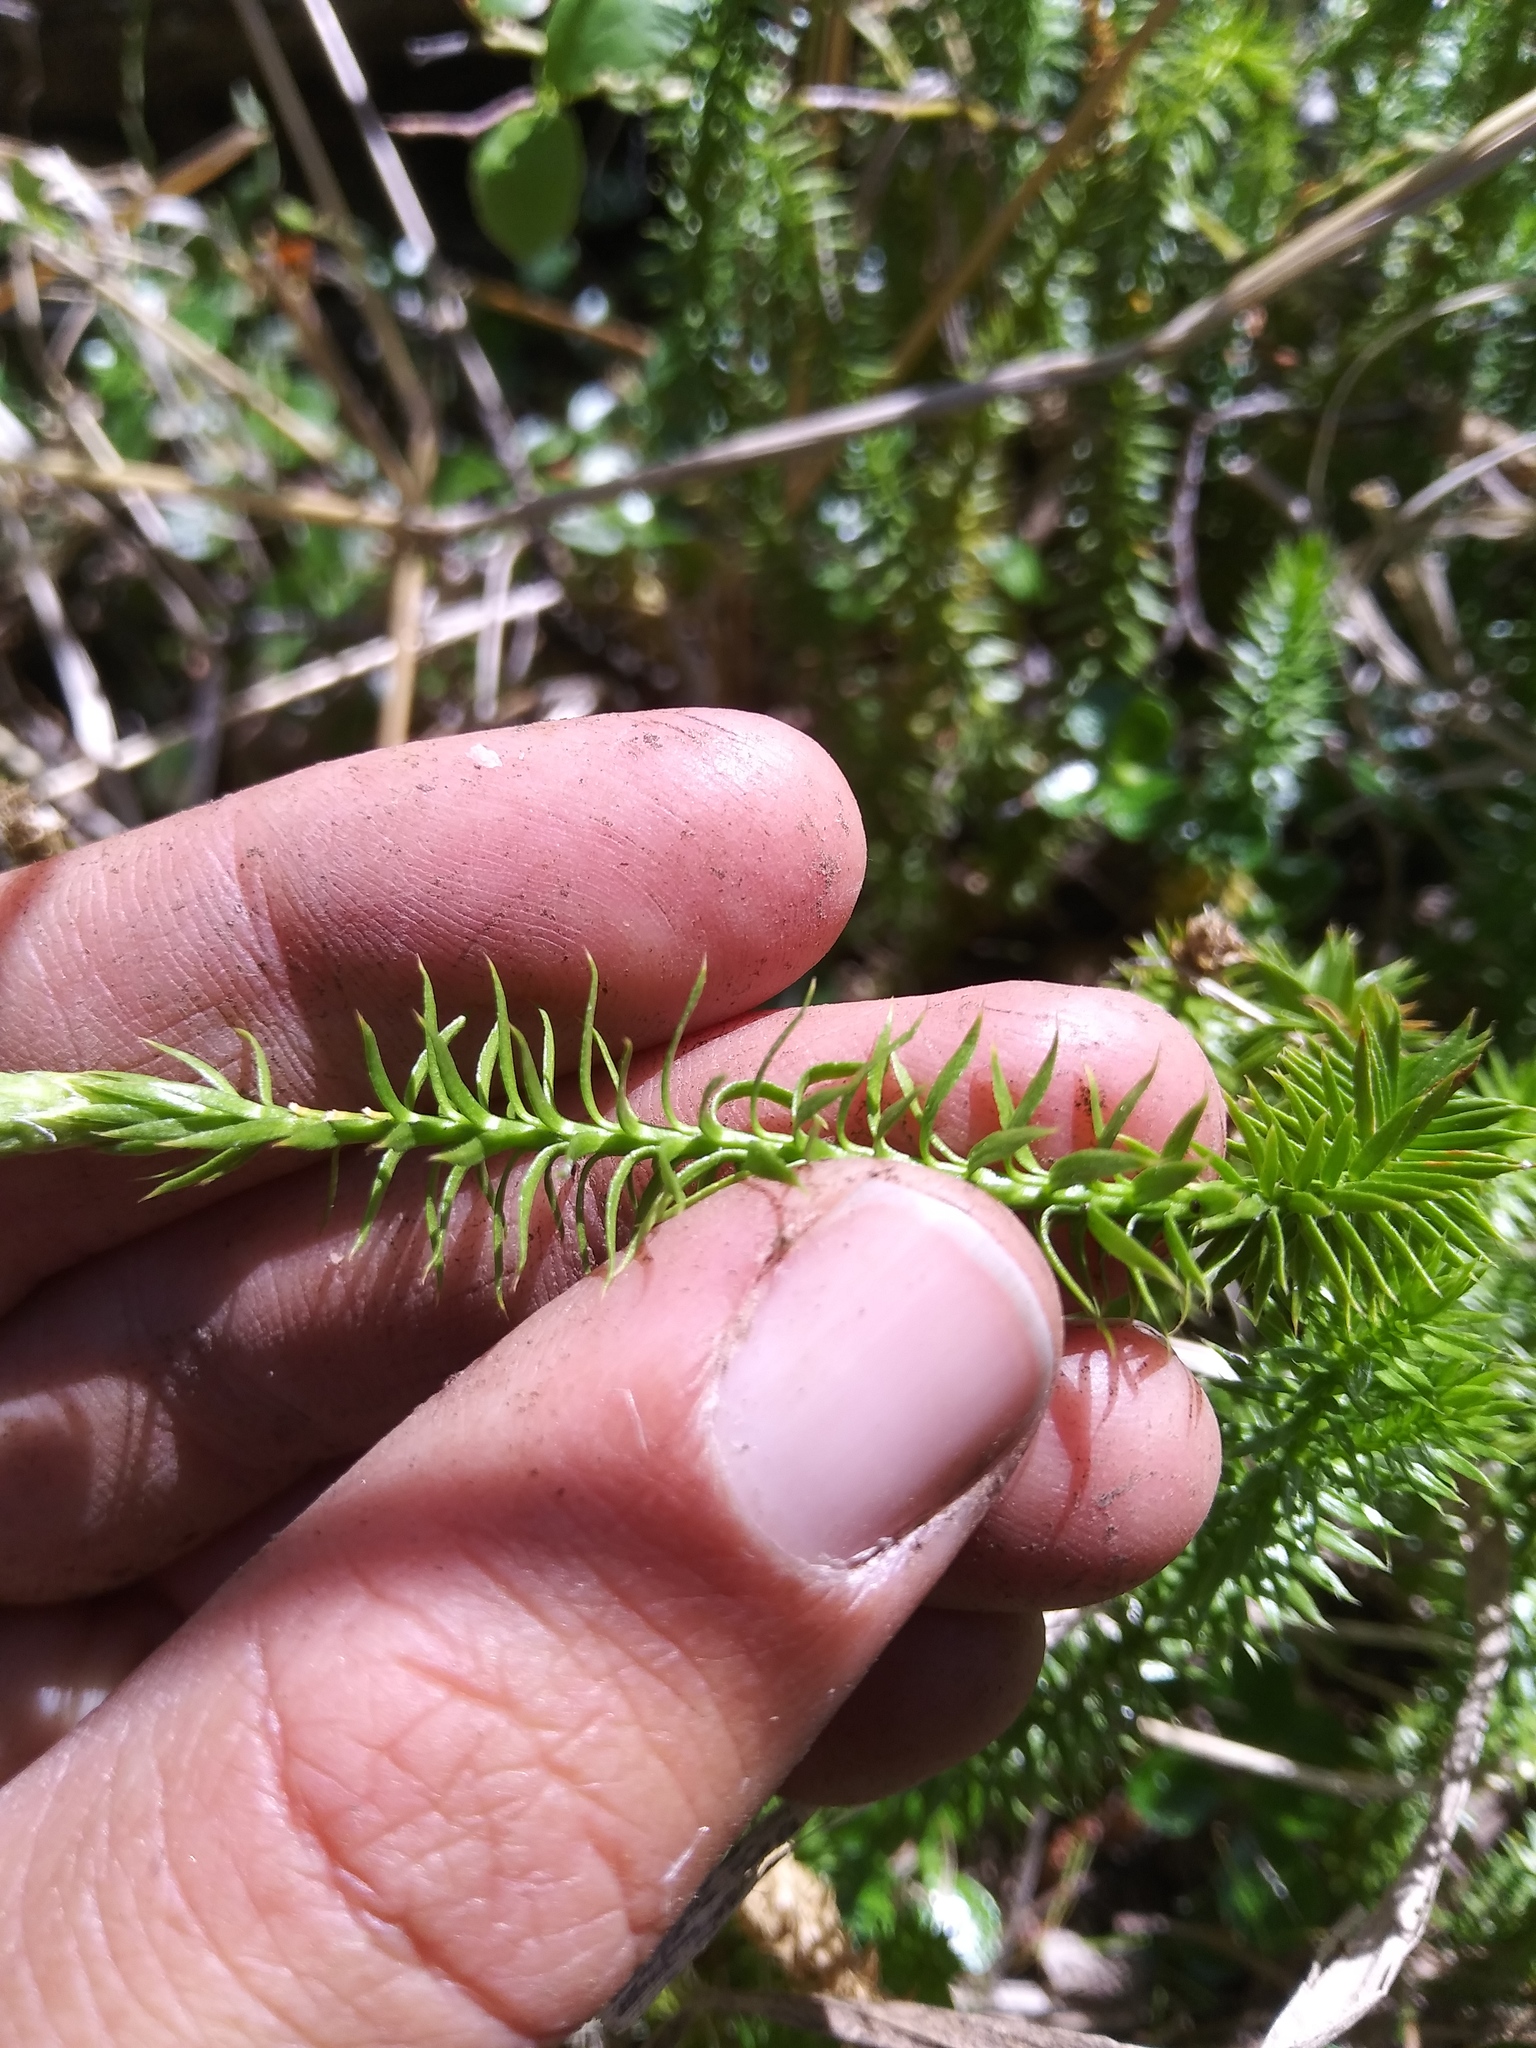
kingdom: Plantae
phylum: Tracheophyta
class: Lycopodiopsida
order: Lycopodiales
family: Lycopodiaceae
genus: Spinulum
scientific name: Spinulum annotinum
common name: Interrupted club-moss
